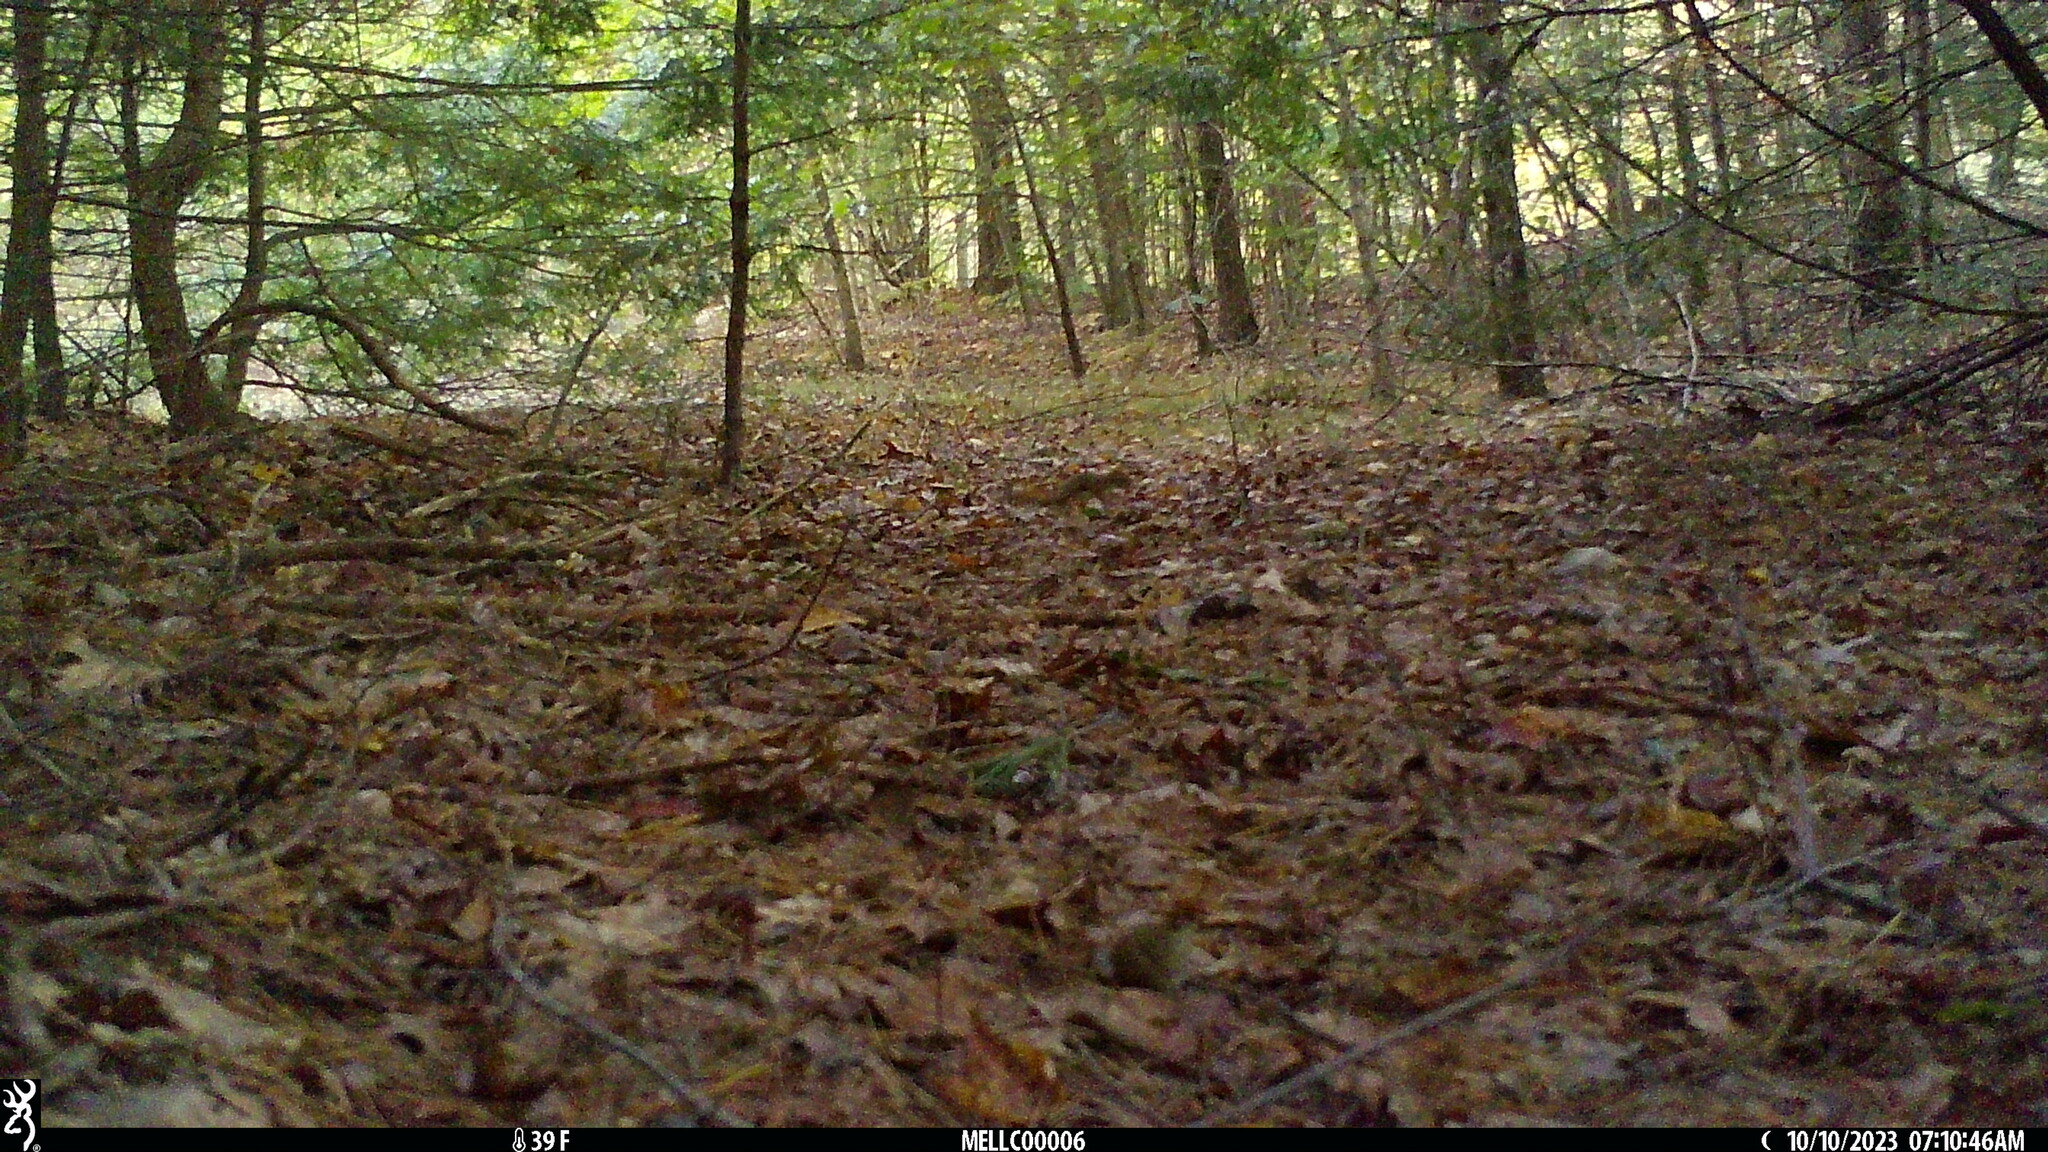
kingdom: Animalia
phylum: Chordata
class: Mammalia
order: Rodentia
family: Sciuridae
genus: Tamiasciurus
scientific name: Tamiasciurus hudsonicus
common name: Red squirrel
